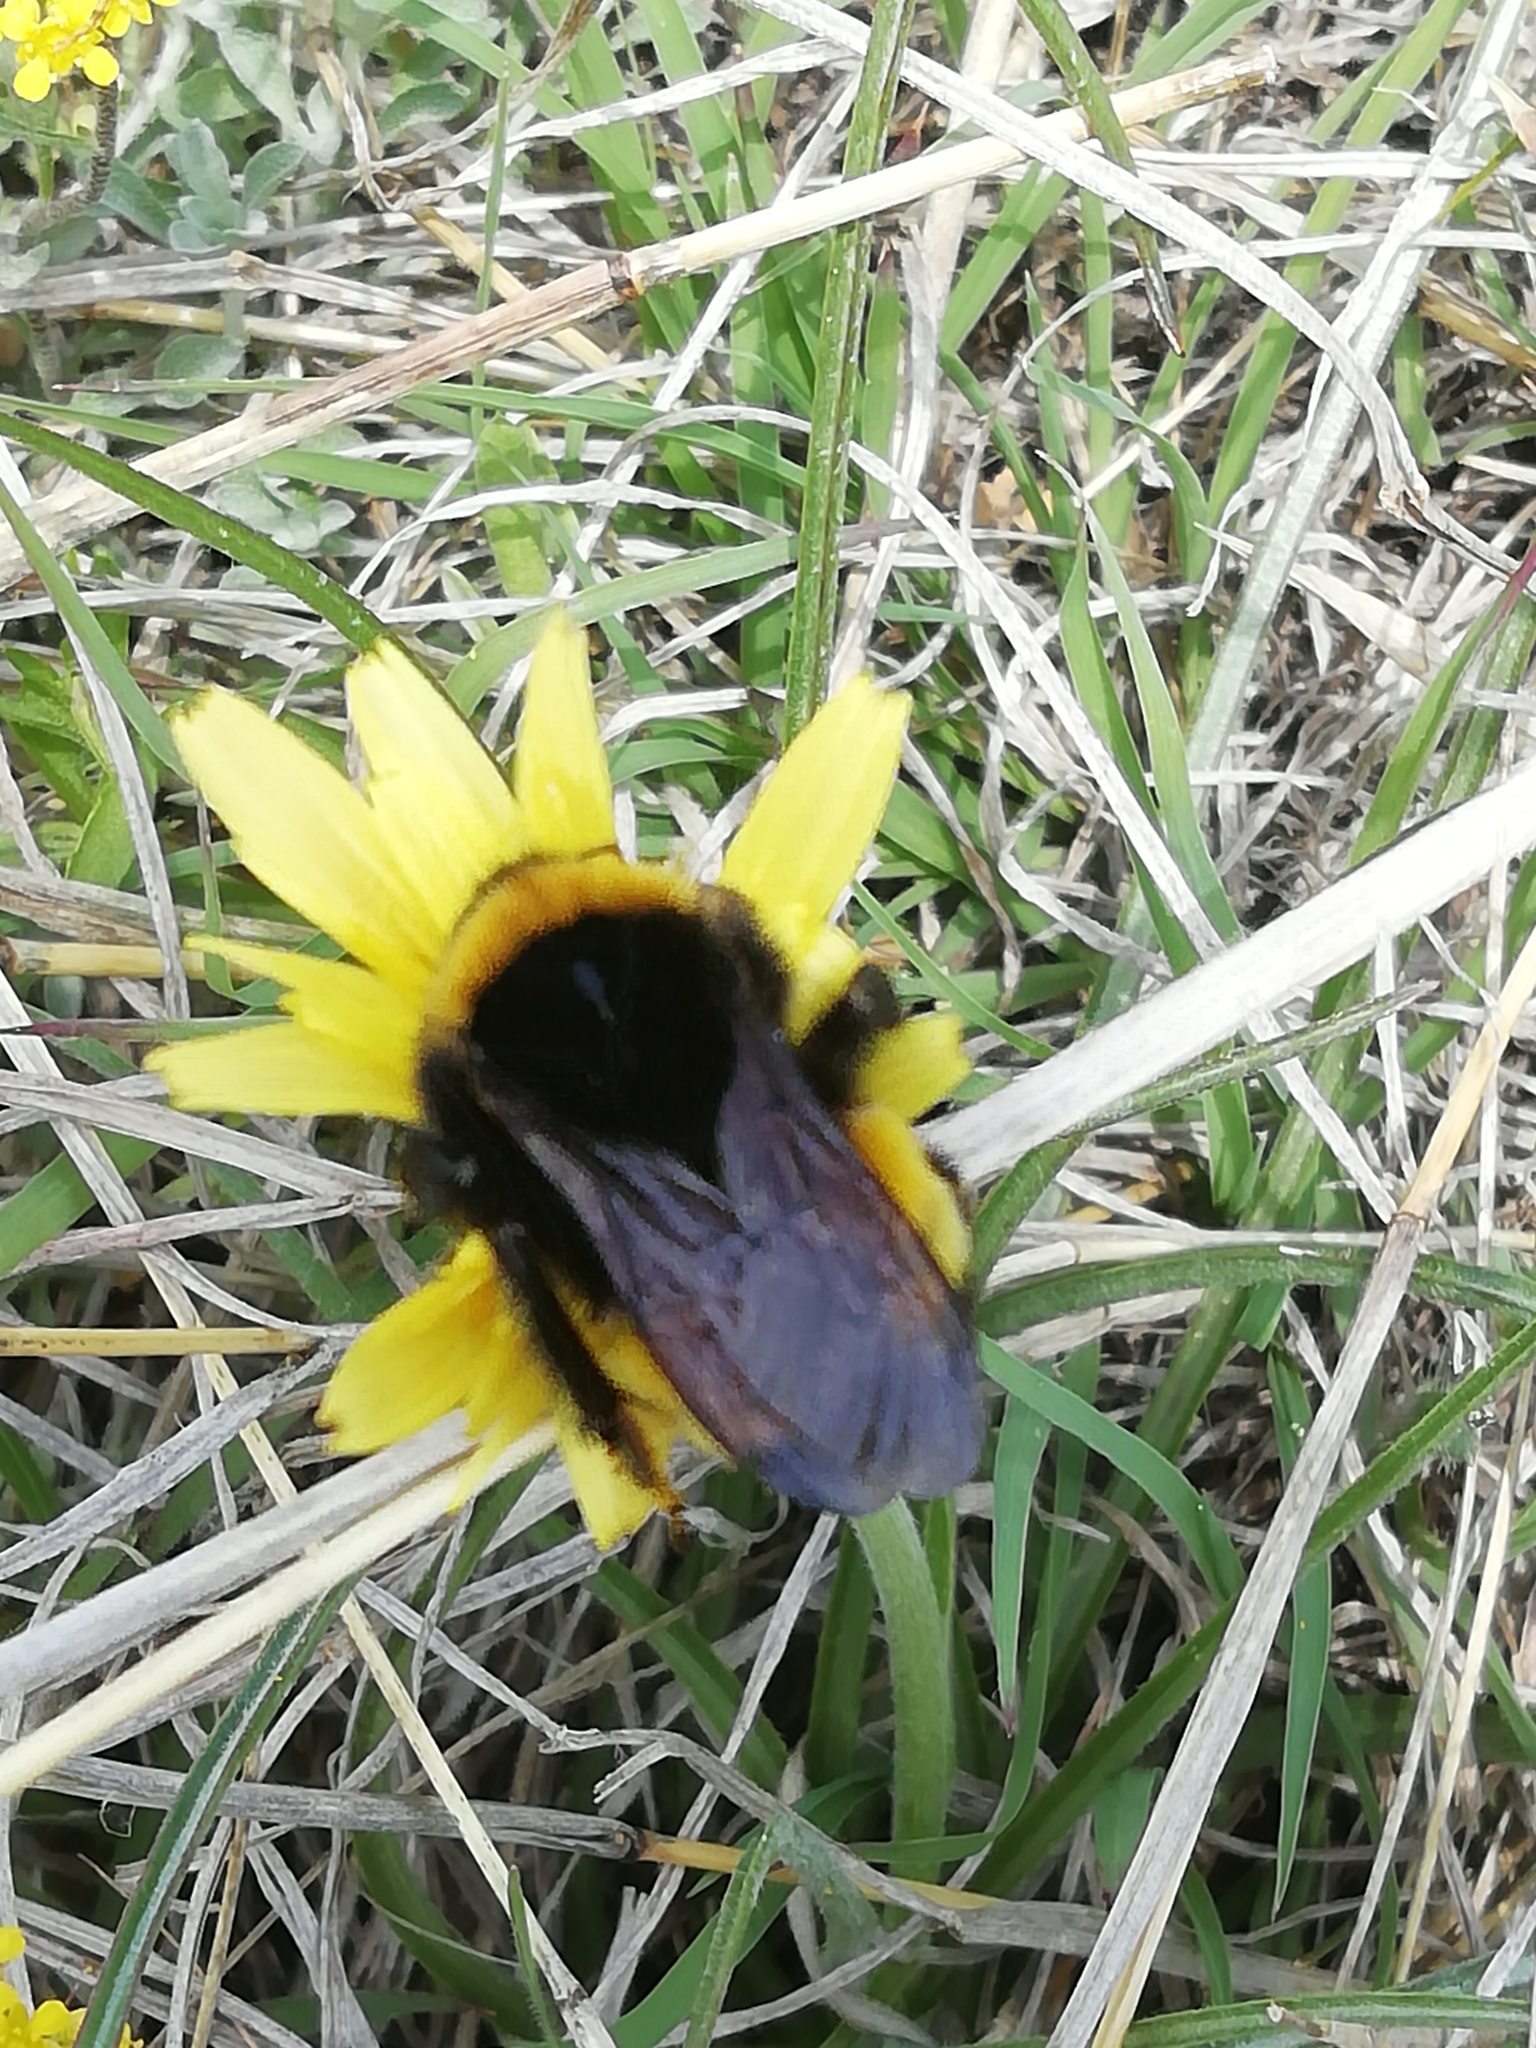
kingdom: Animalia
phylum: Arthropoda
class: Insecta
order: Hymenoptera
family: Apidae
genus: Bombus
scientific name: Bombus haematurus
